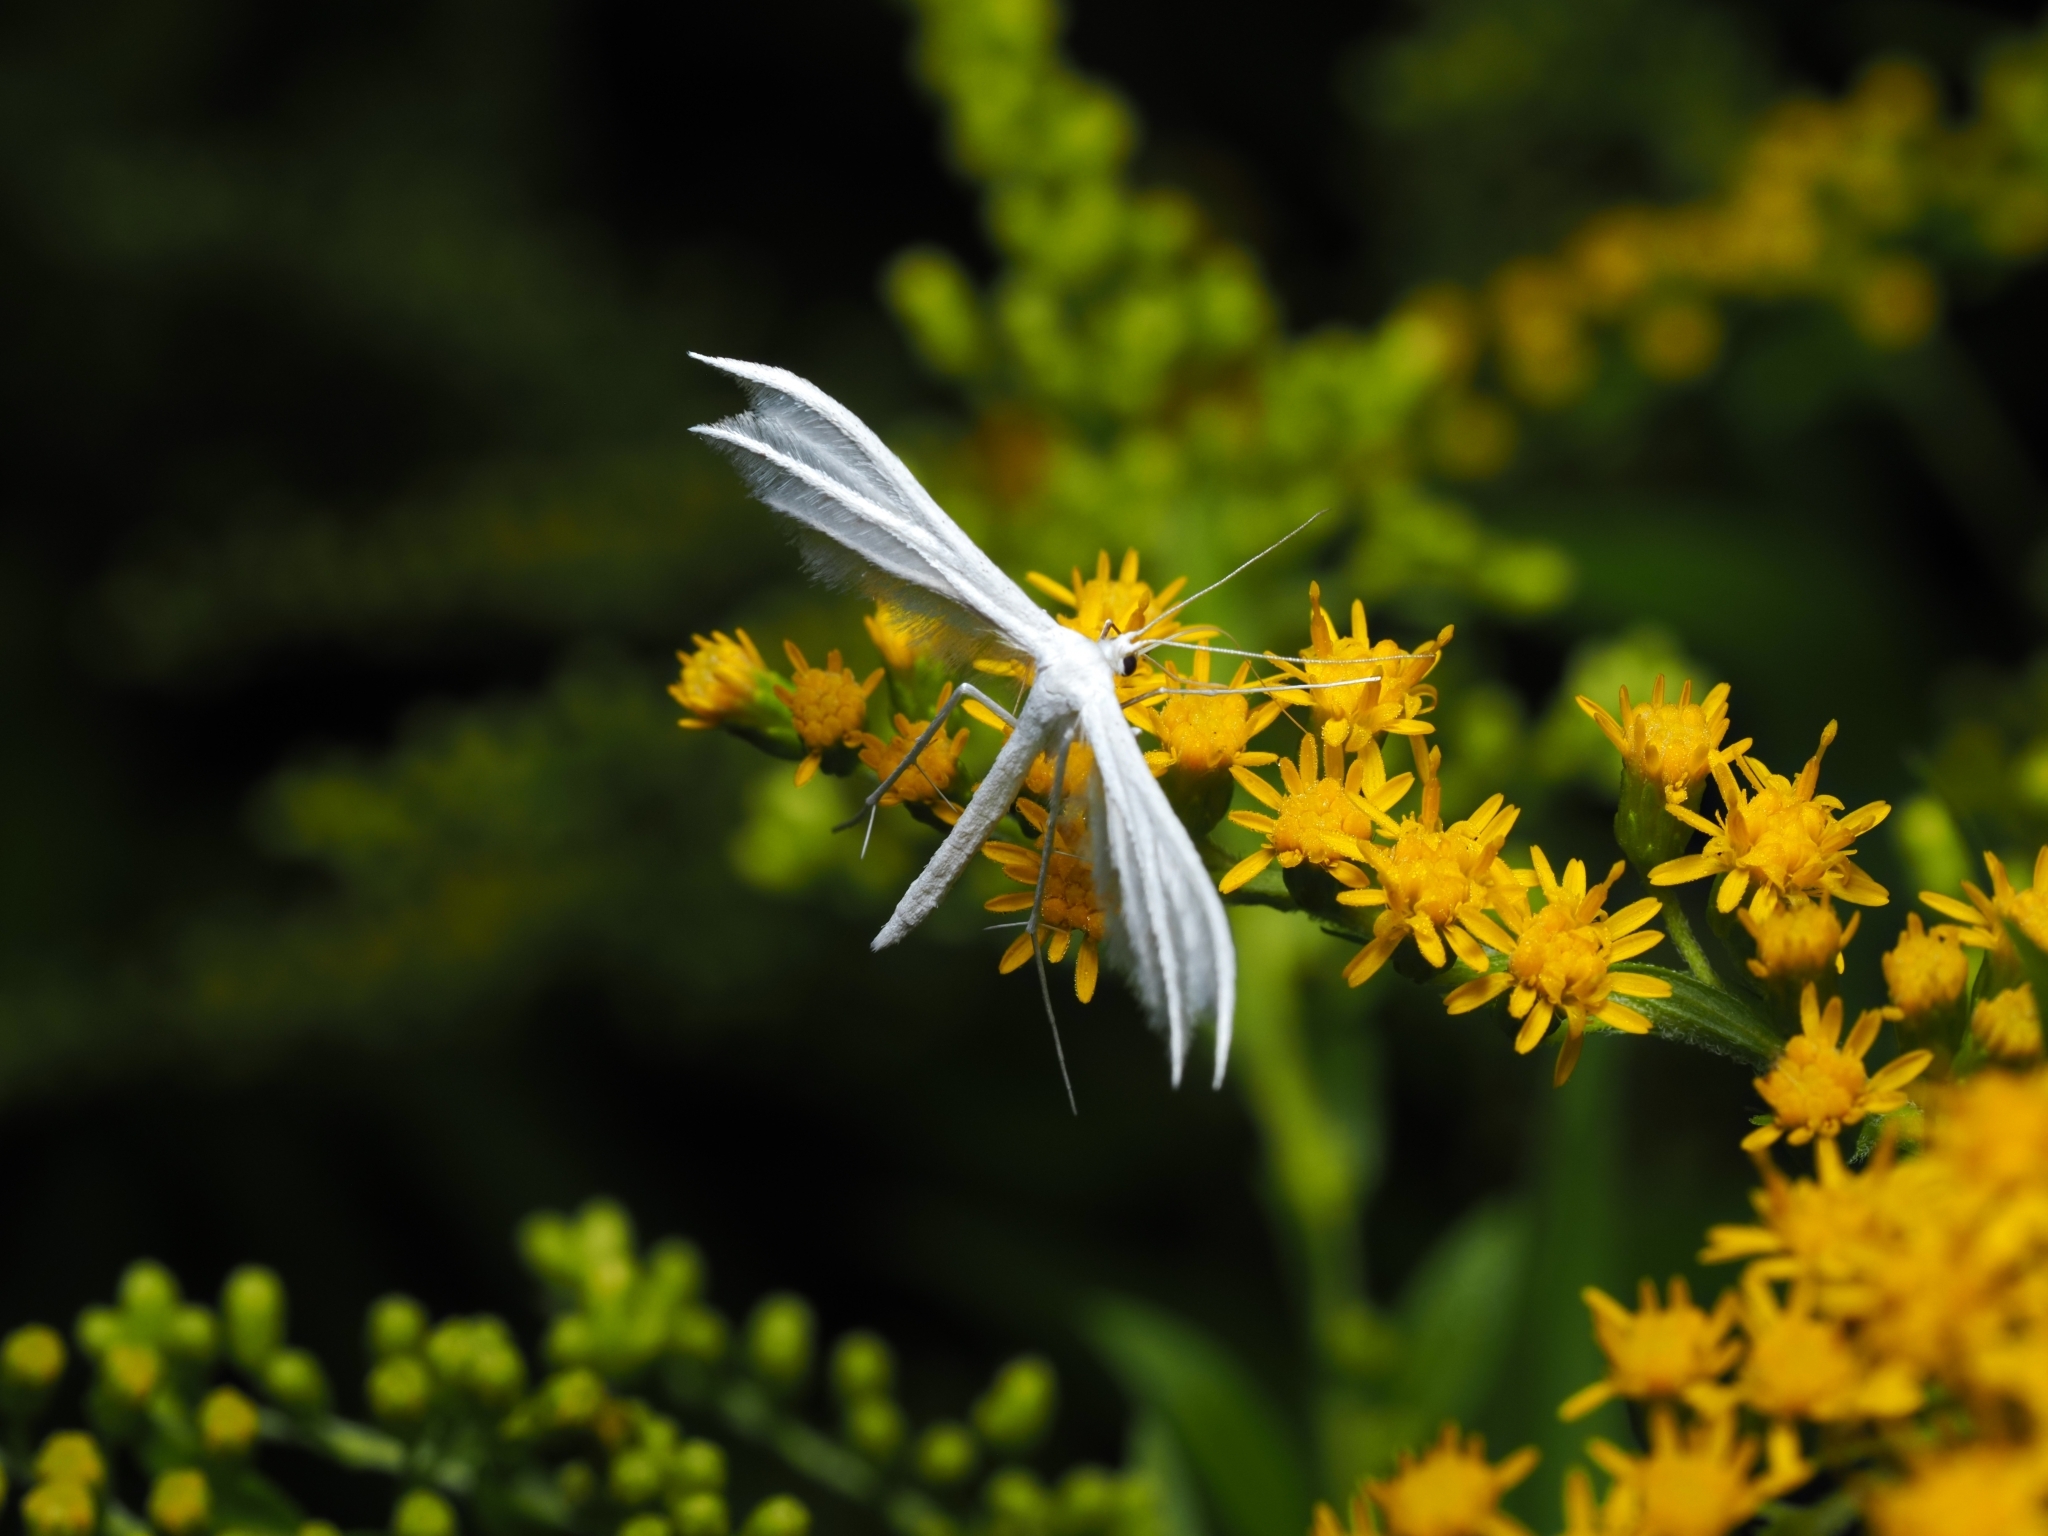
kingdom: Animalia
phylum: Arthropoda
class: Insecta
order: Lepidoptera
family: Pterophoridae
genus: Pterophorus
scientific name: Pterophorus pentadactyla
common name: White plume moth
